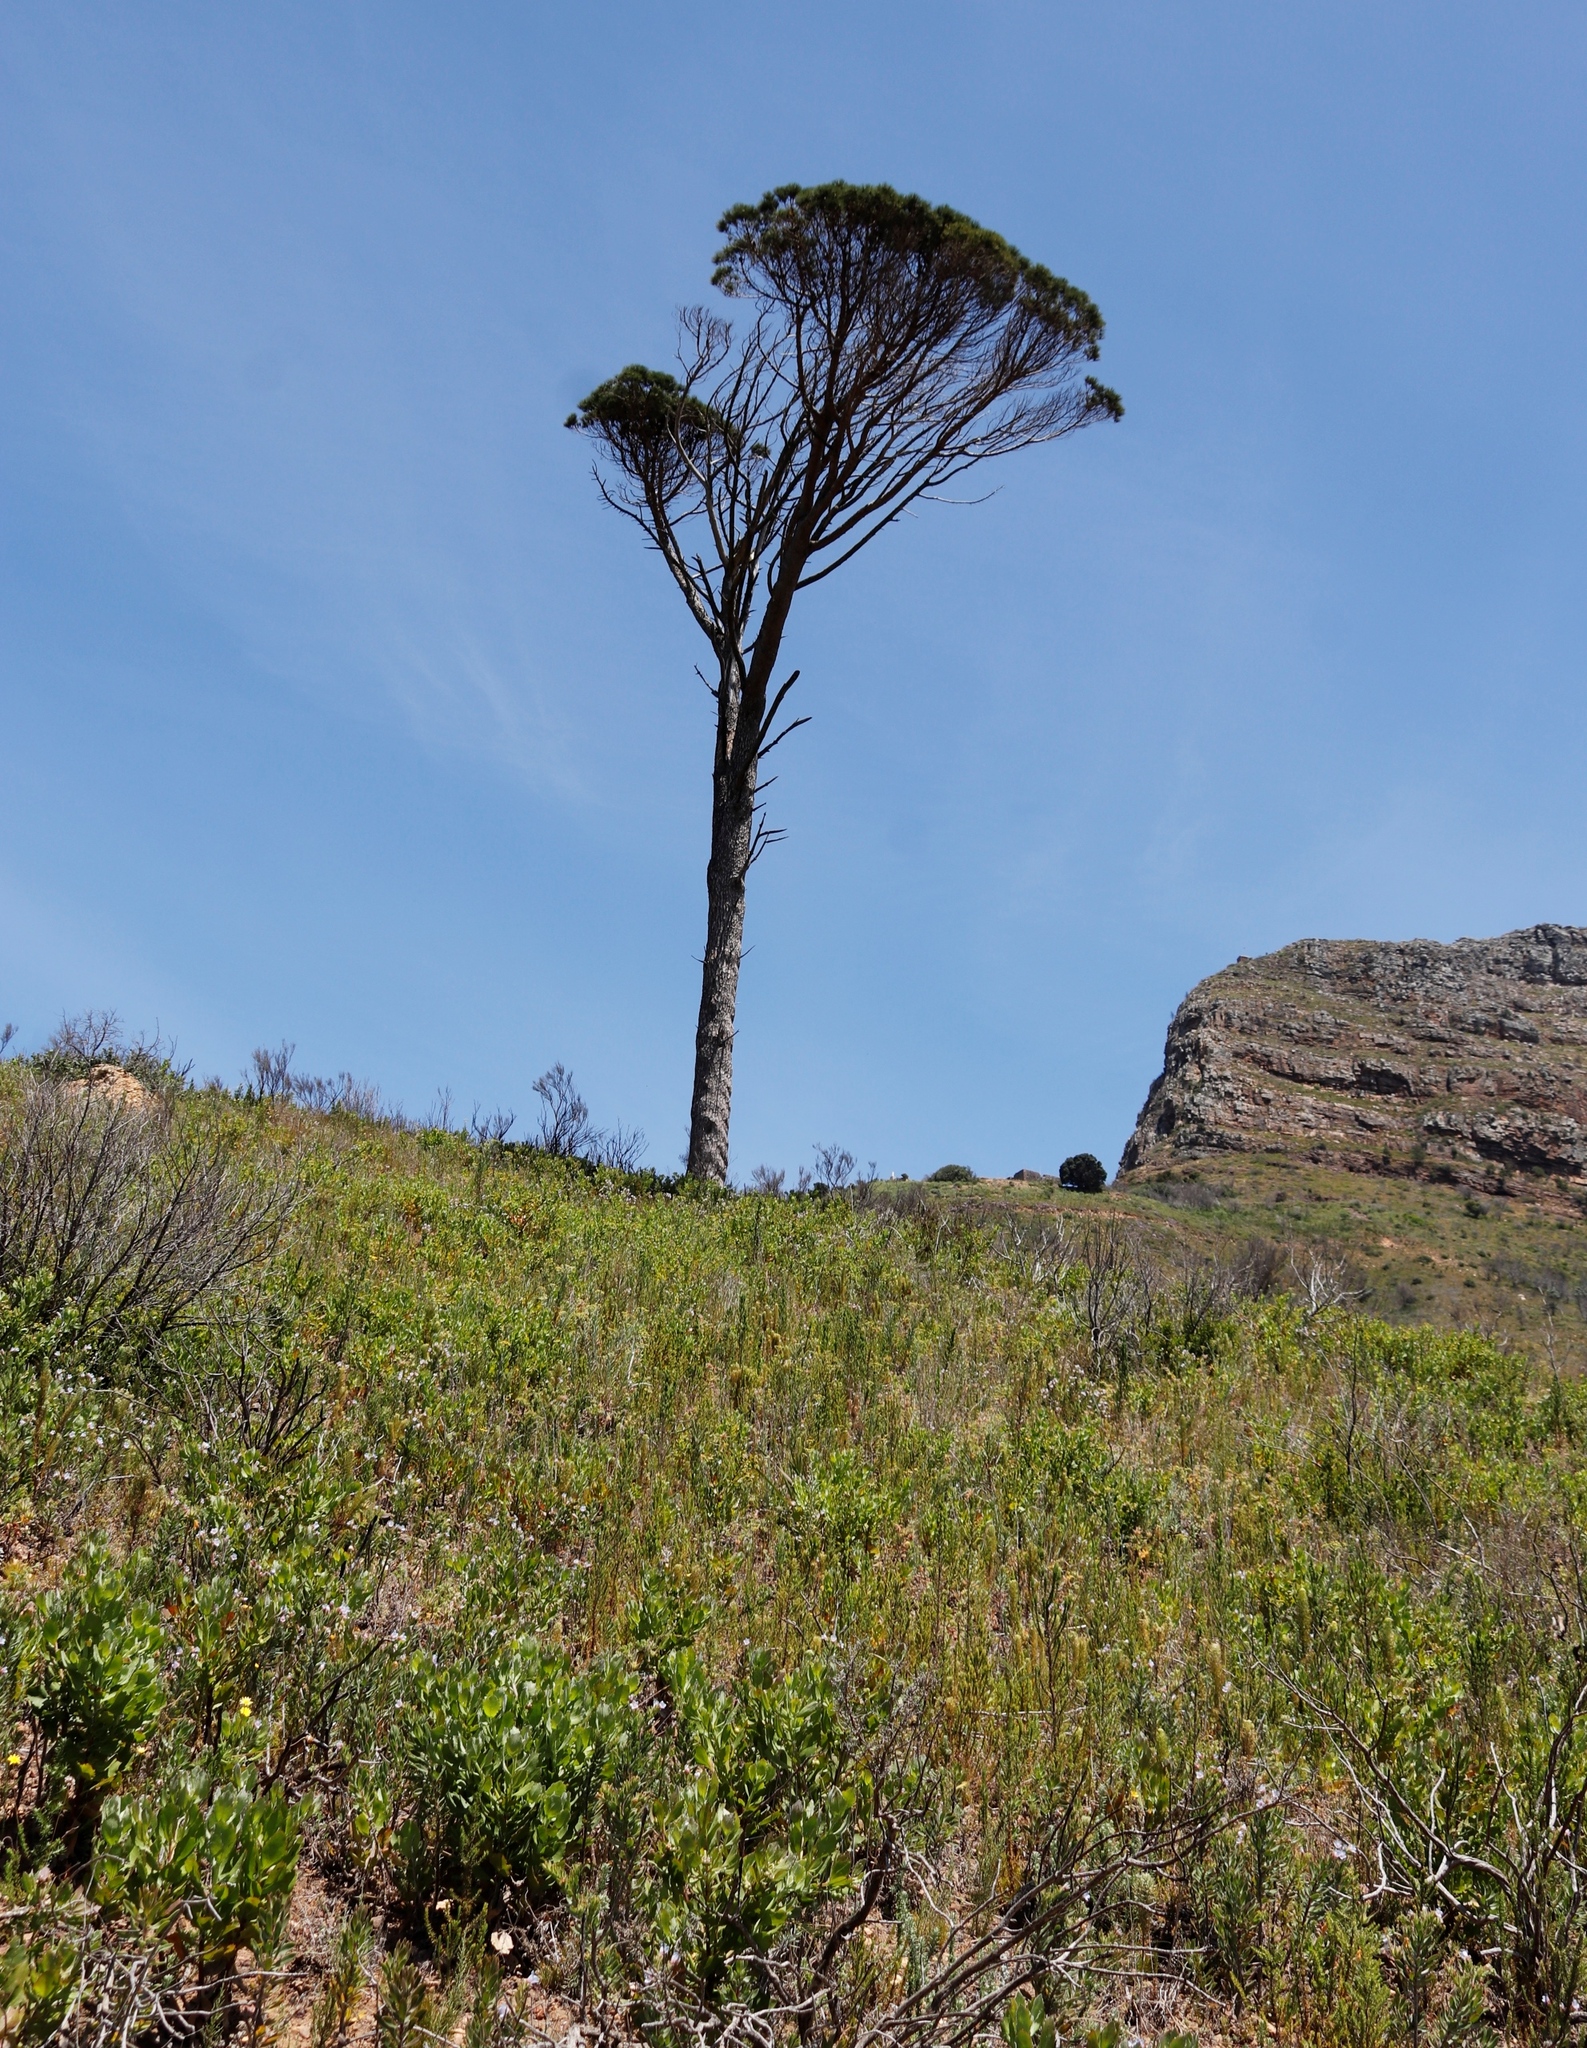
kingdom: Plantae
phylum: Tracheophyta
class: Pinopsida
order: Pinales
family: Pinaceae
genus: Pinus
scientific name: Pinus pinaster
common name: Maritime pine
